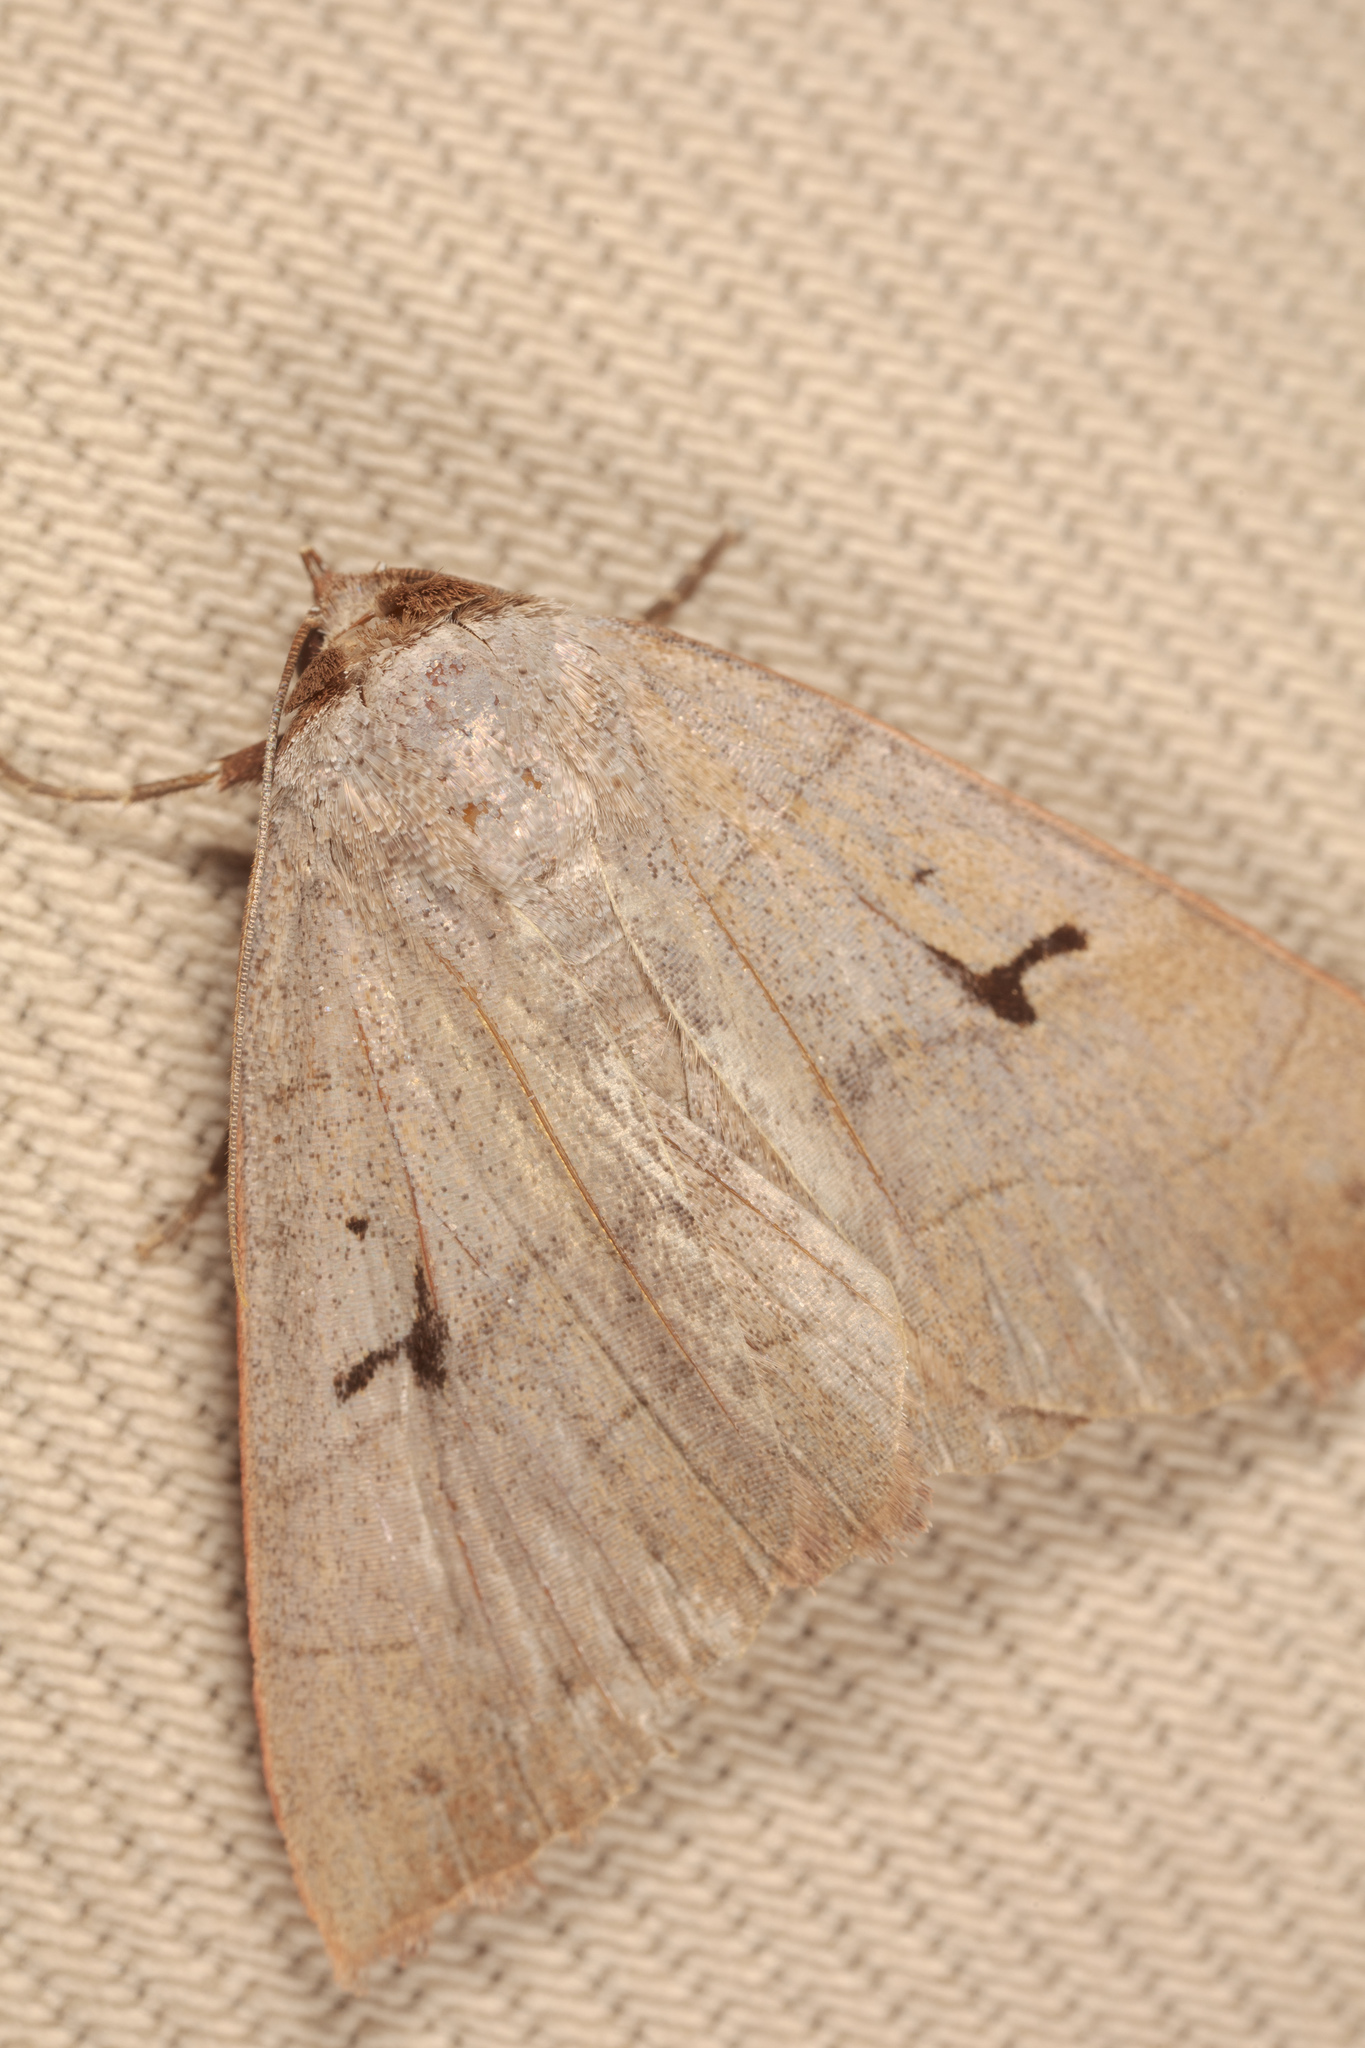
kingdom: Animalia
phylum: Arthropoda
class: Insecta
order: Lepidoptera
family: Erebidae
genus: Panopoda
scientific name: Panopoda carneicosta
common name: Brown panopoda moth
